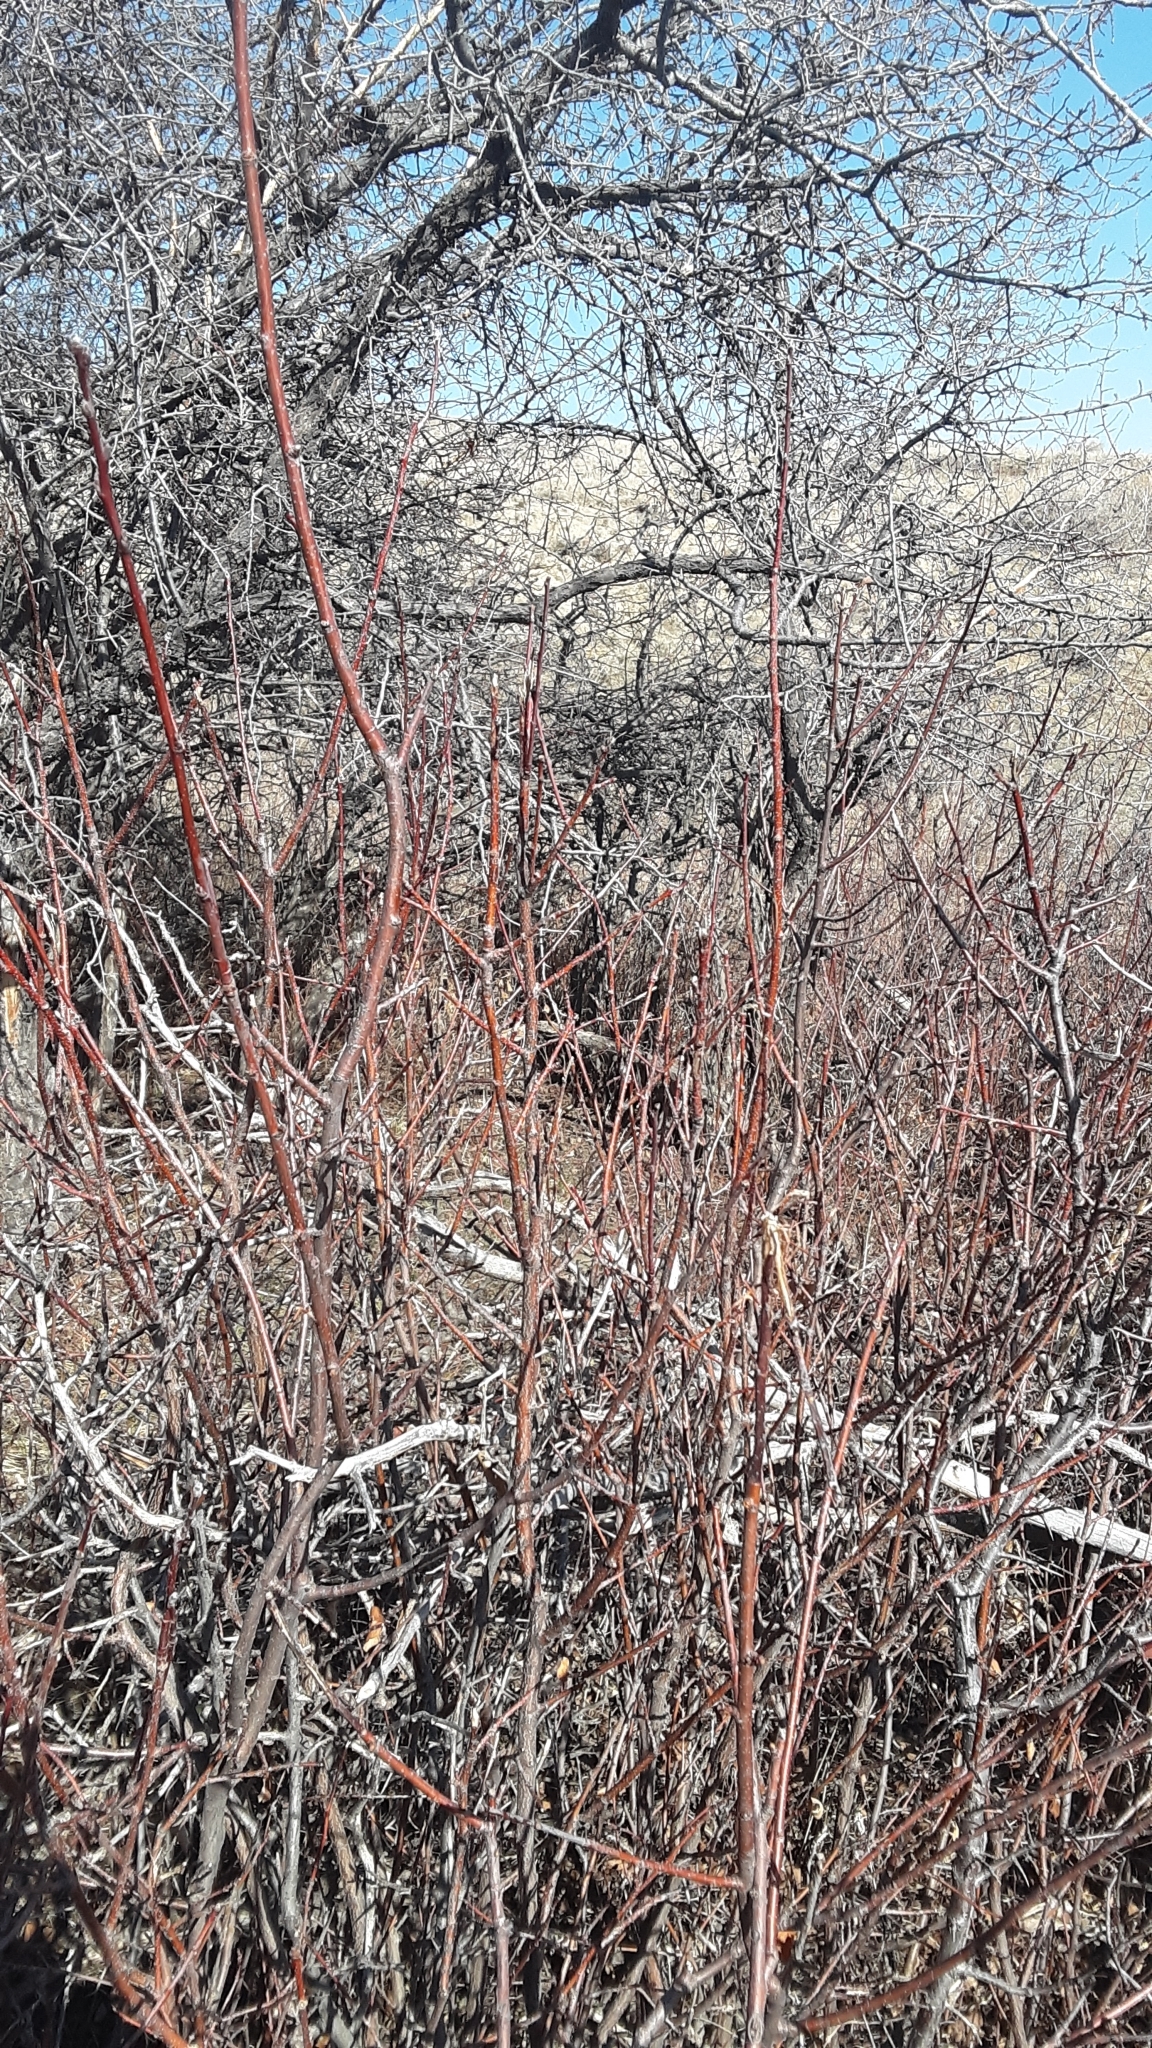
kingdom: Plantae
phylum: Tracheophyta
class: Magnoliopsida
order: Cornales
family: Cornaceae
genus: Cornus
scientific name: Cornus sericea
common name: Red-osier dogwood
